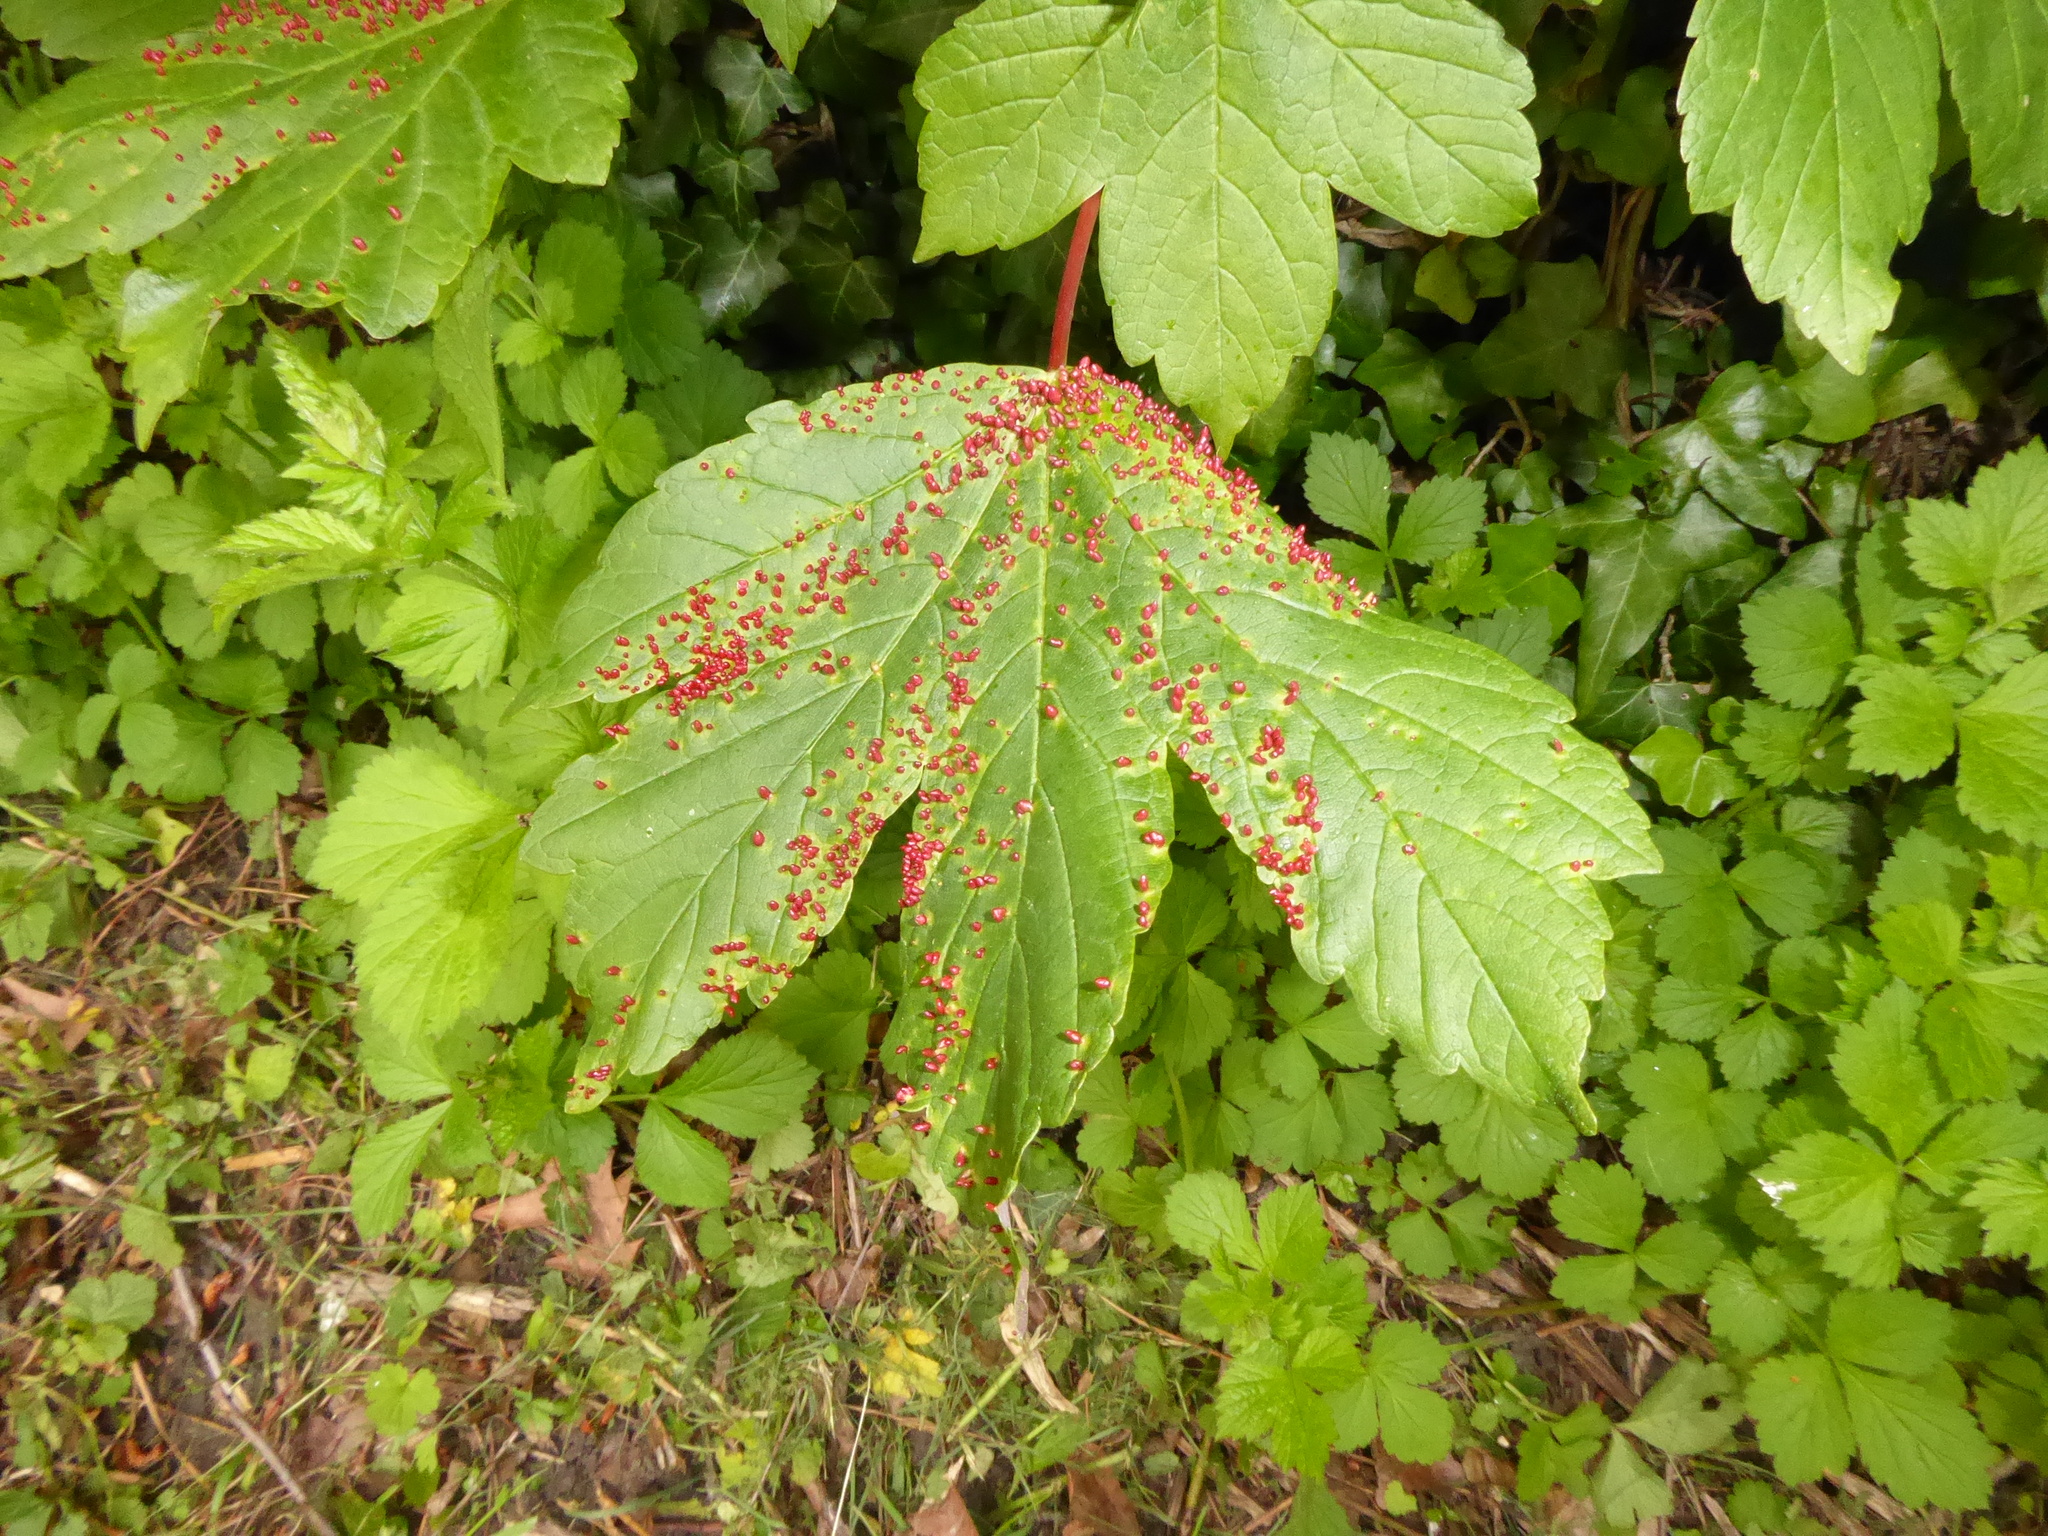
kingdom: Plantae
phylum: Tracheophyta
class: Magnoliopsida
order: Sapindales
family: Sapindaceae
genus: Acer
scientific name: Acer pseudoplatanus
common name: Sycamore
